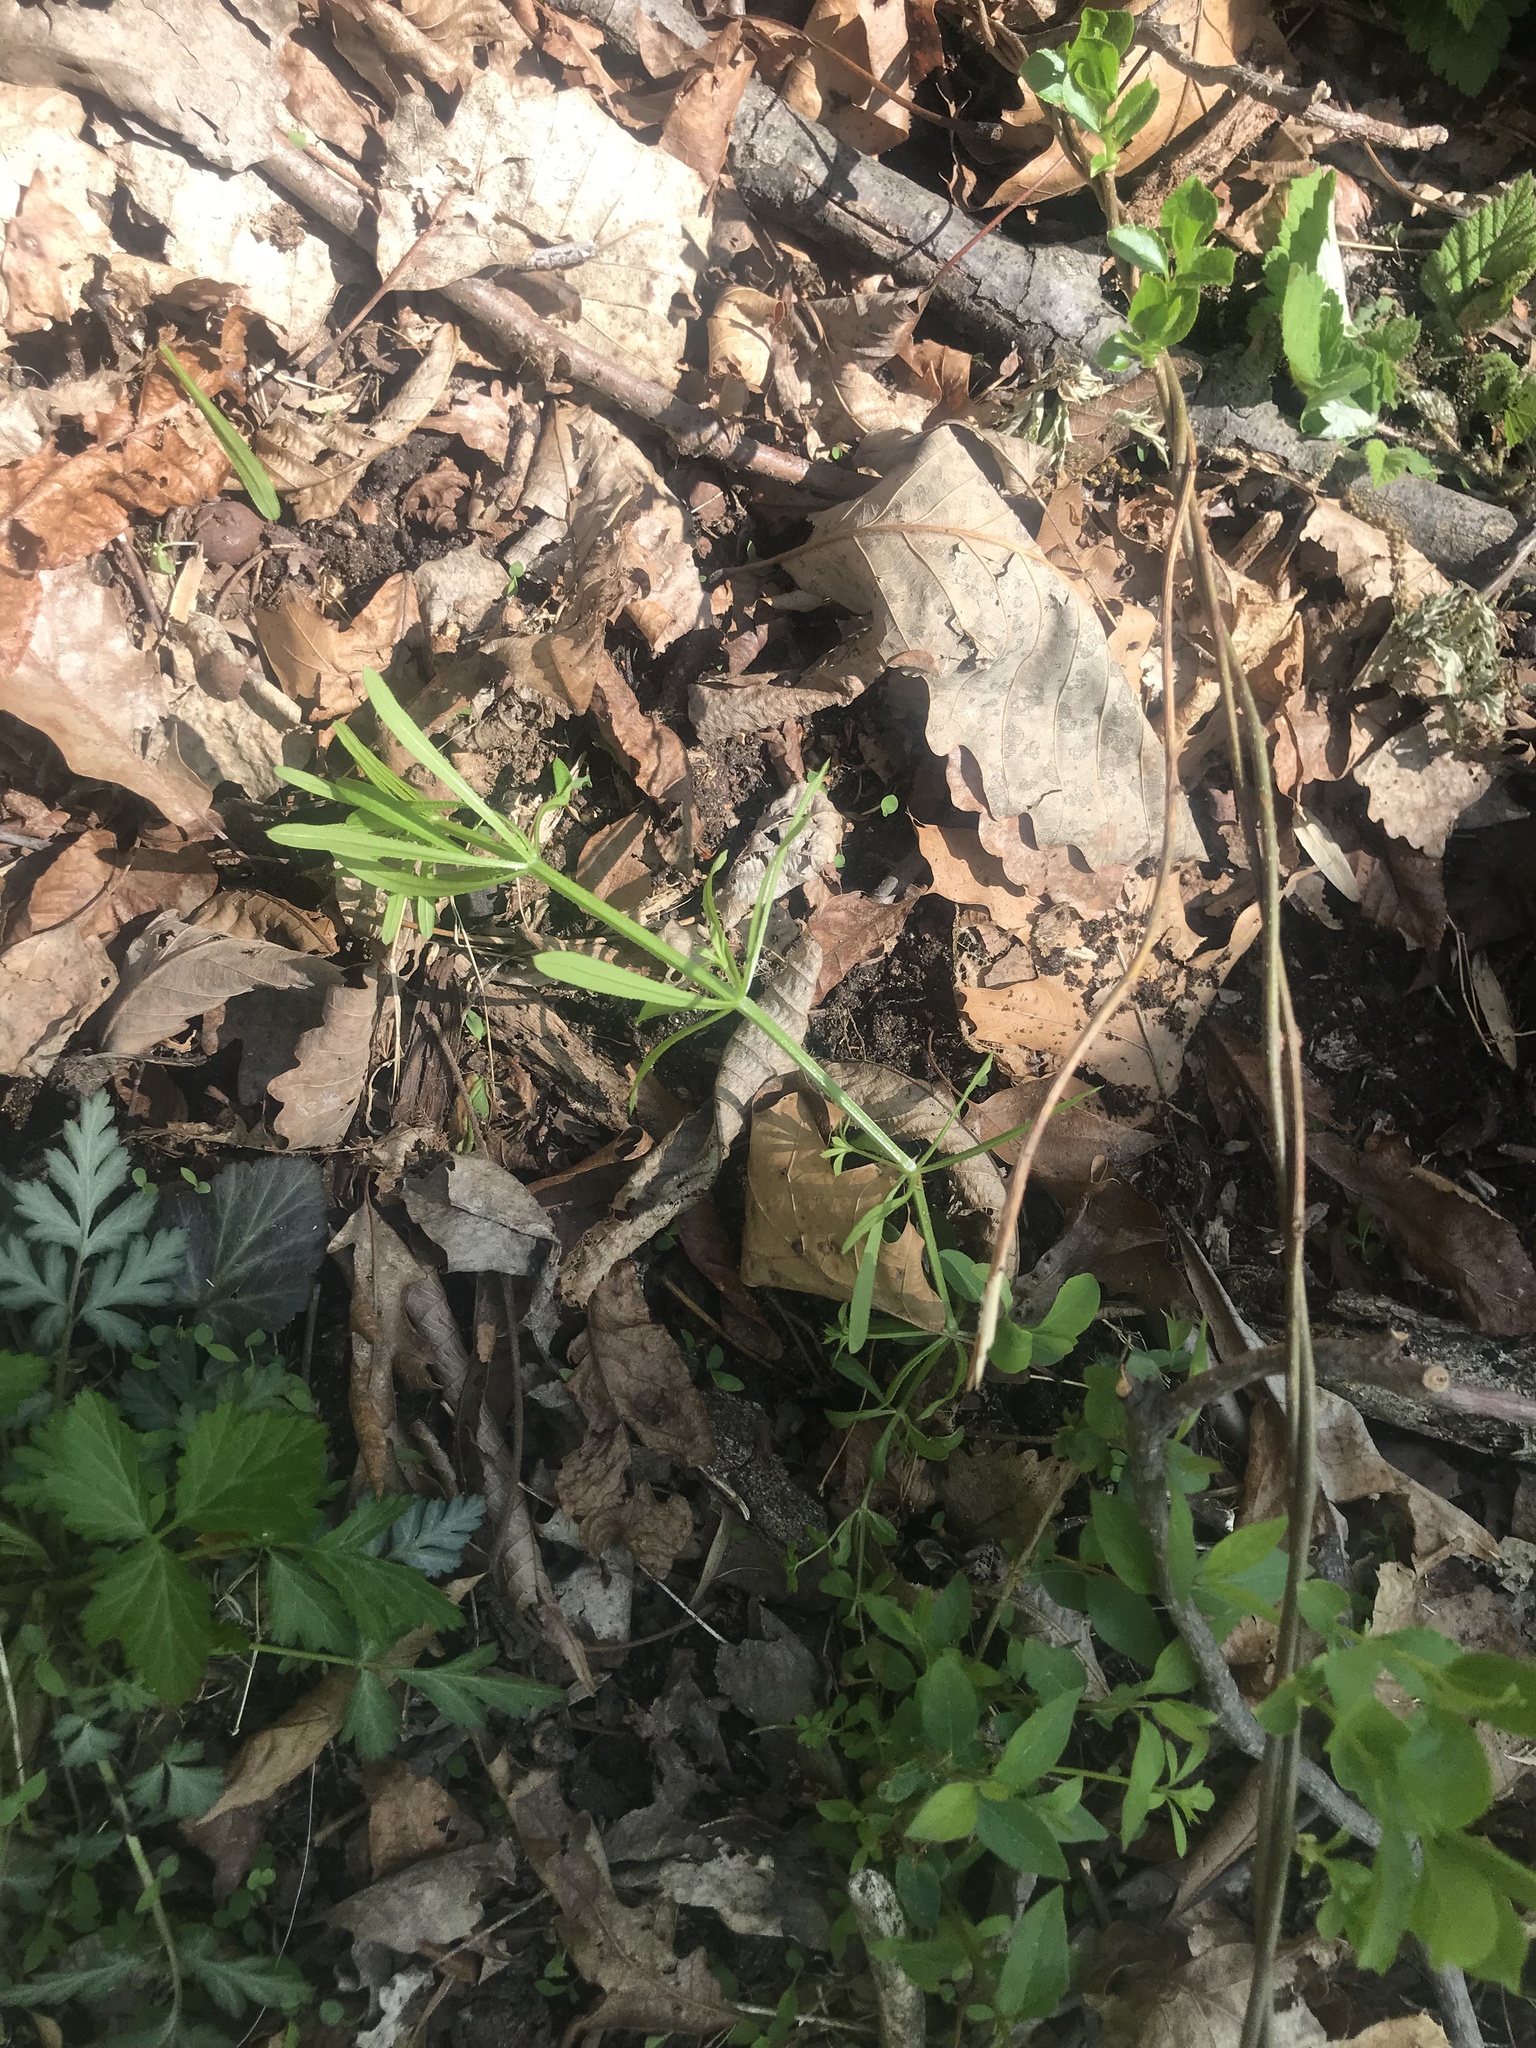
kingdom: Plantae
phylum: Tracheophyta
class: Magnoliopsida
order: Gentianales
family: Rubiaceae
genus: Galium
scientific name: Galium aparine
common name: Cleavers
